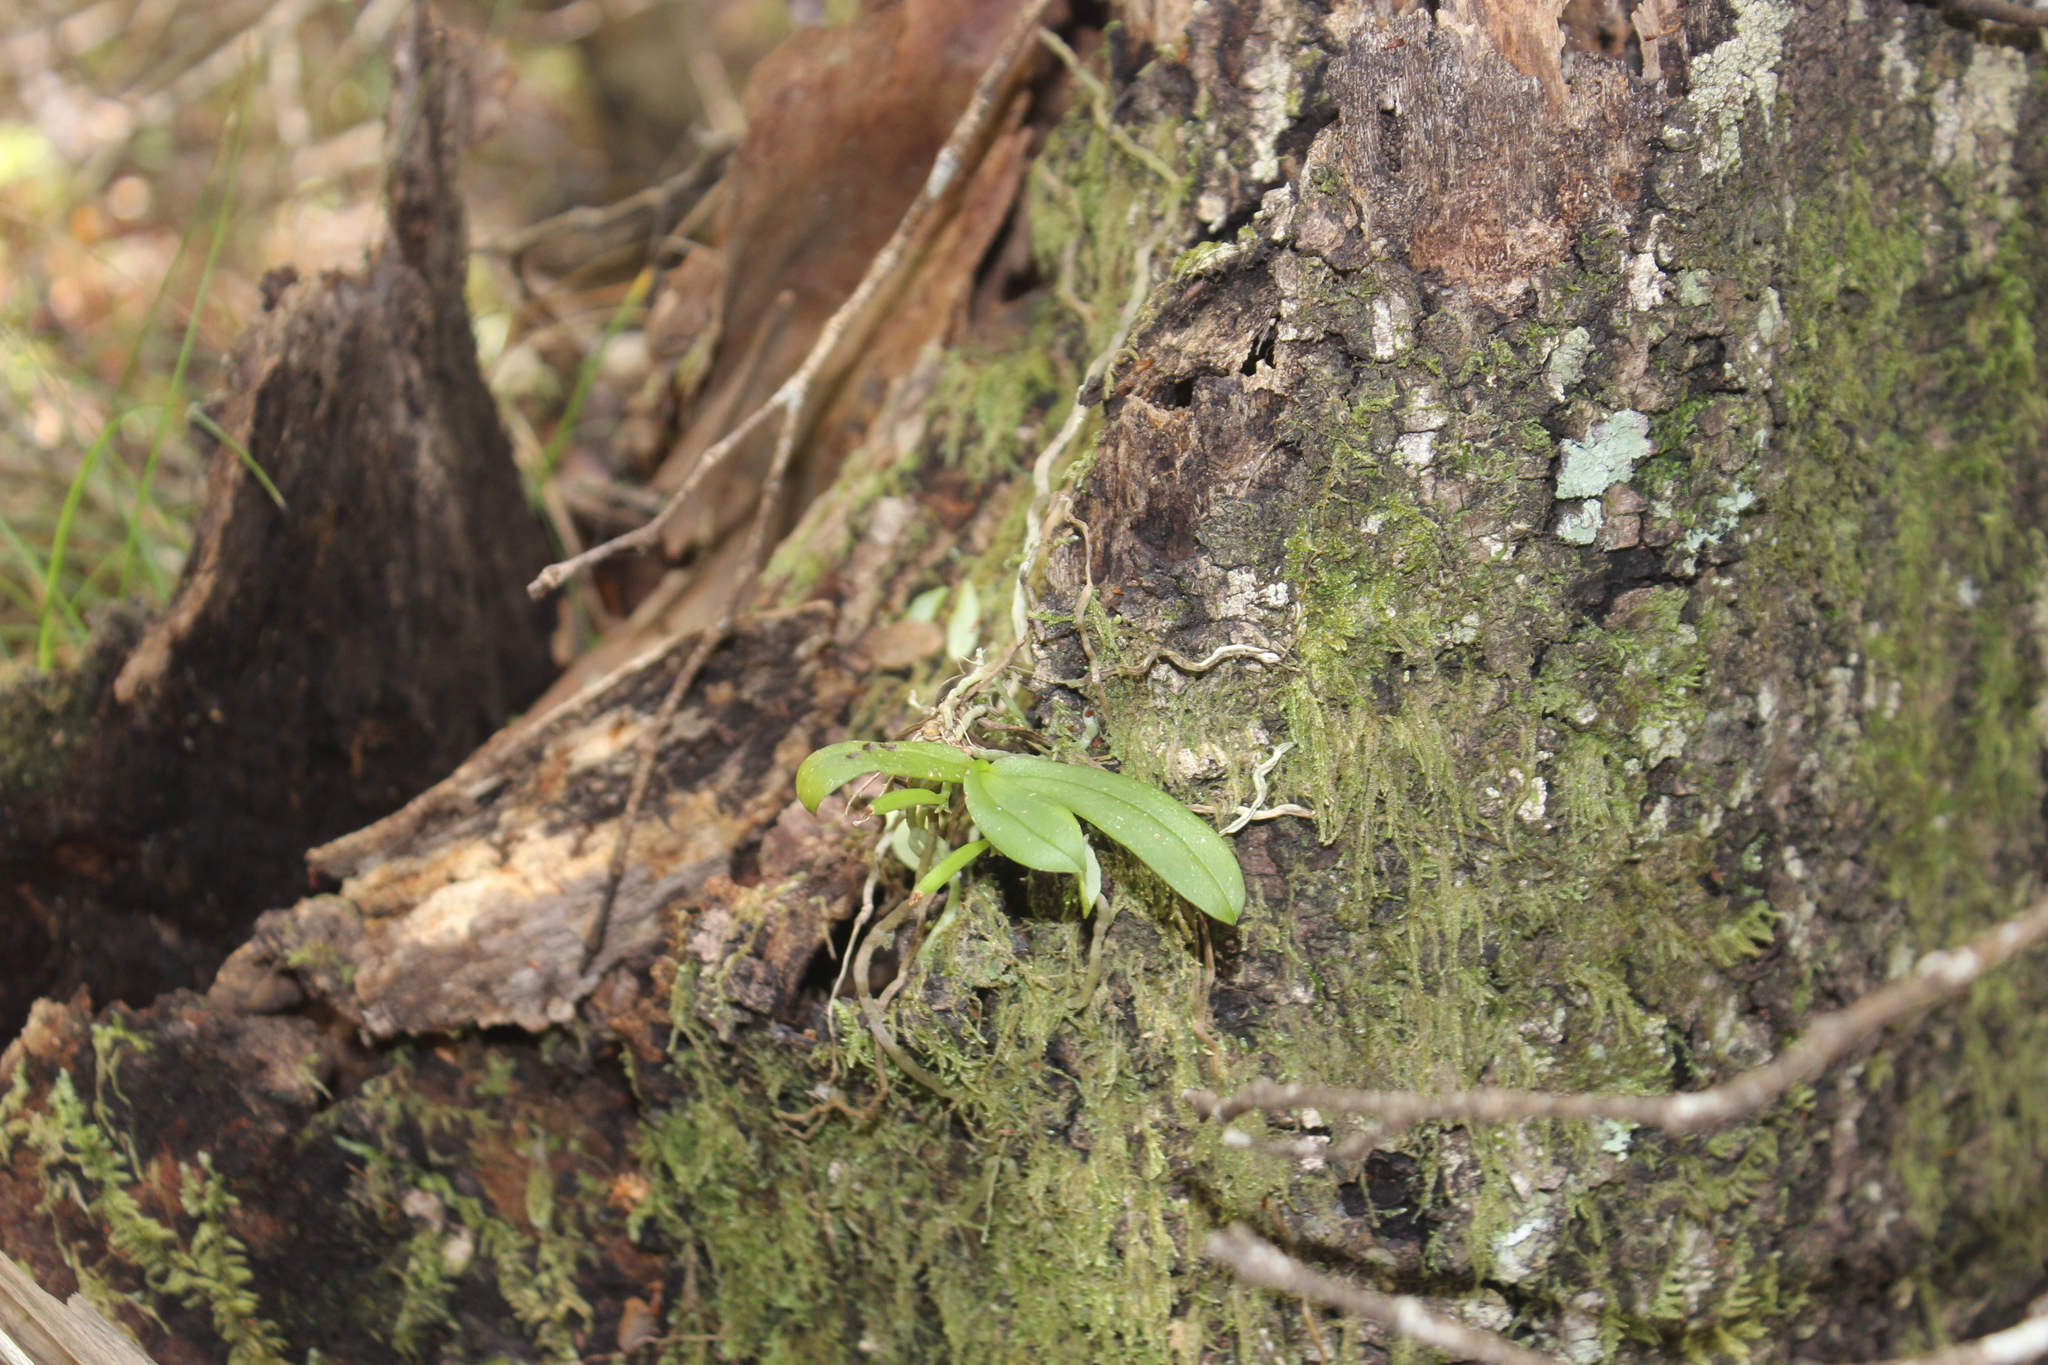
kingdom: Plantae
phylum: Tracheophyta
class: Liliopsida
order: Asparagales
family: Orchidaceae
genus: Drymoanthus
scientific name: Drymoanthus adversus
